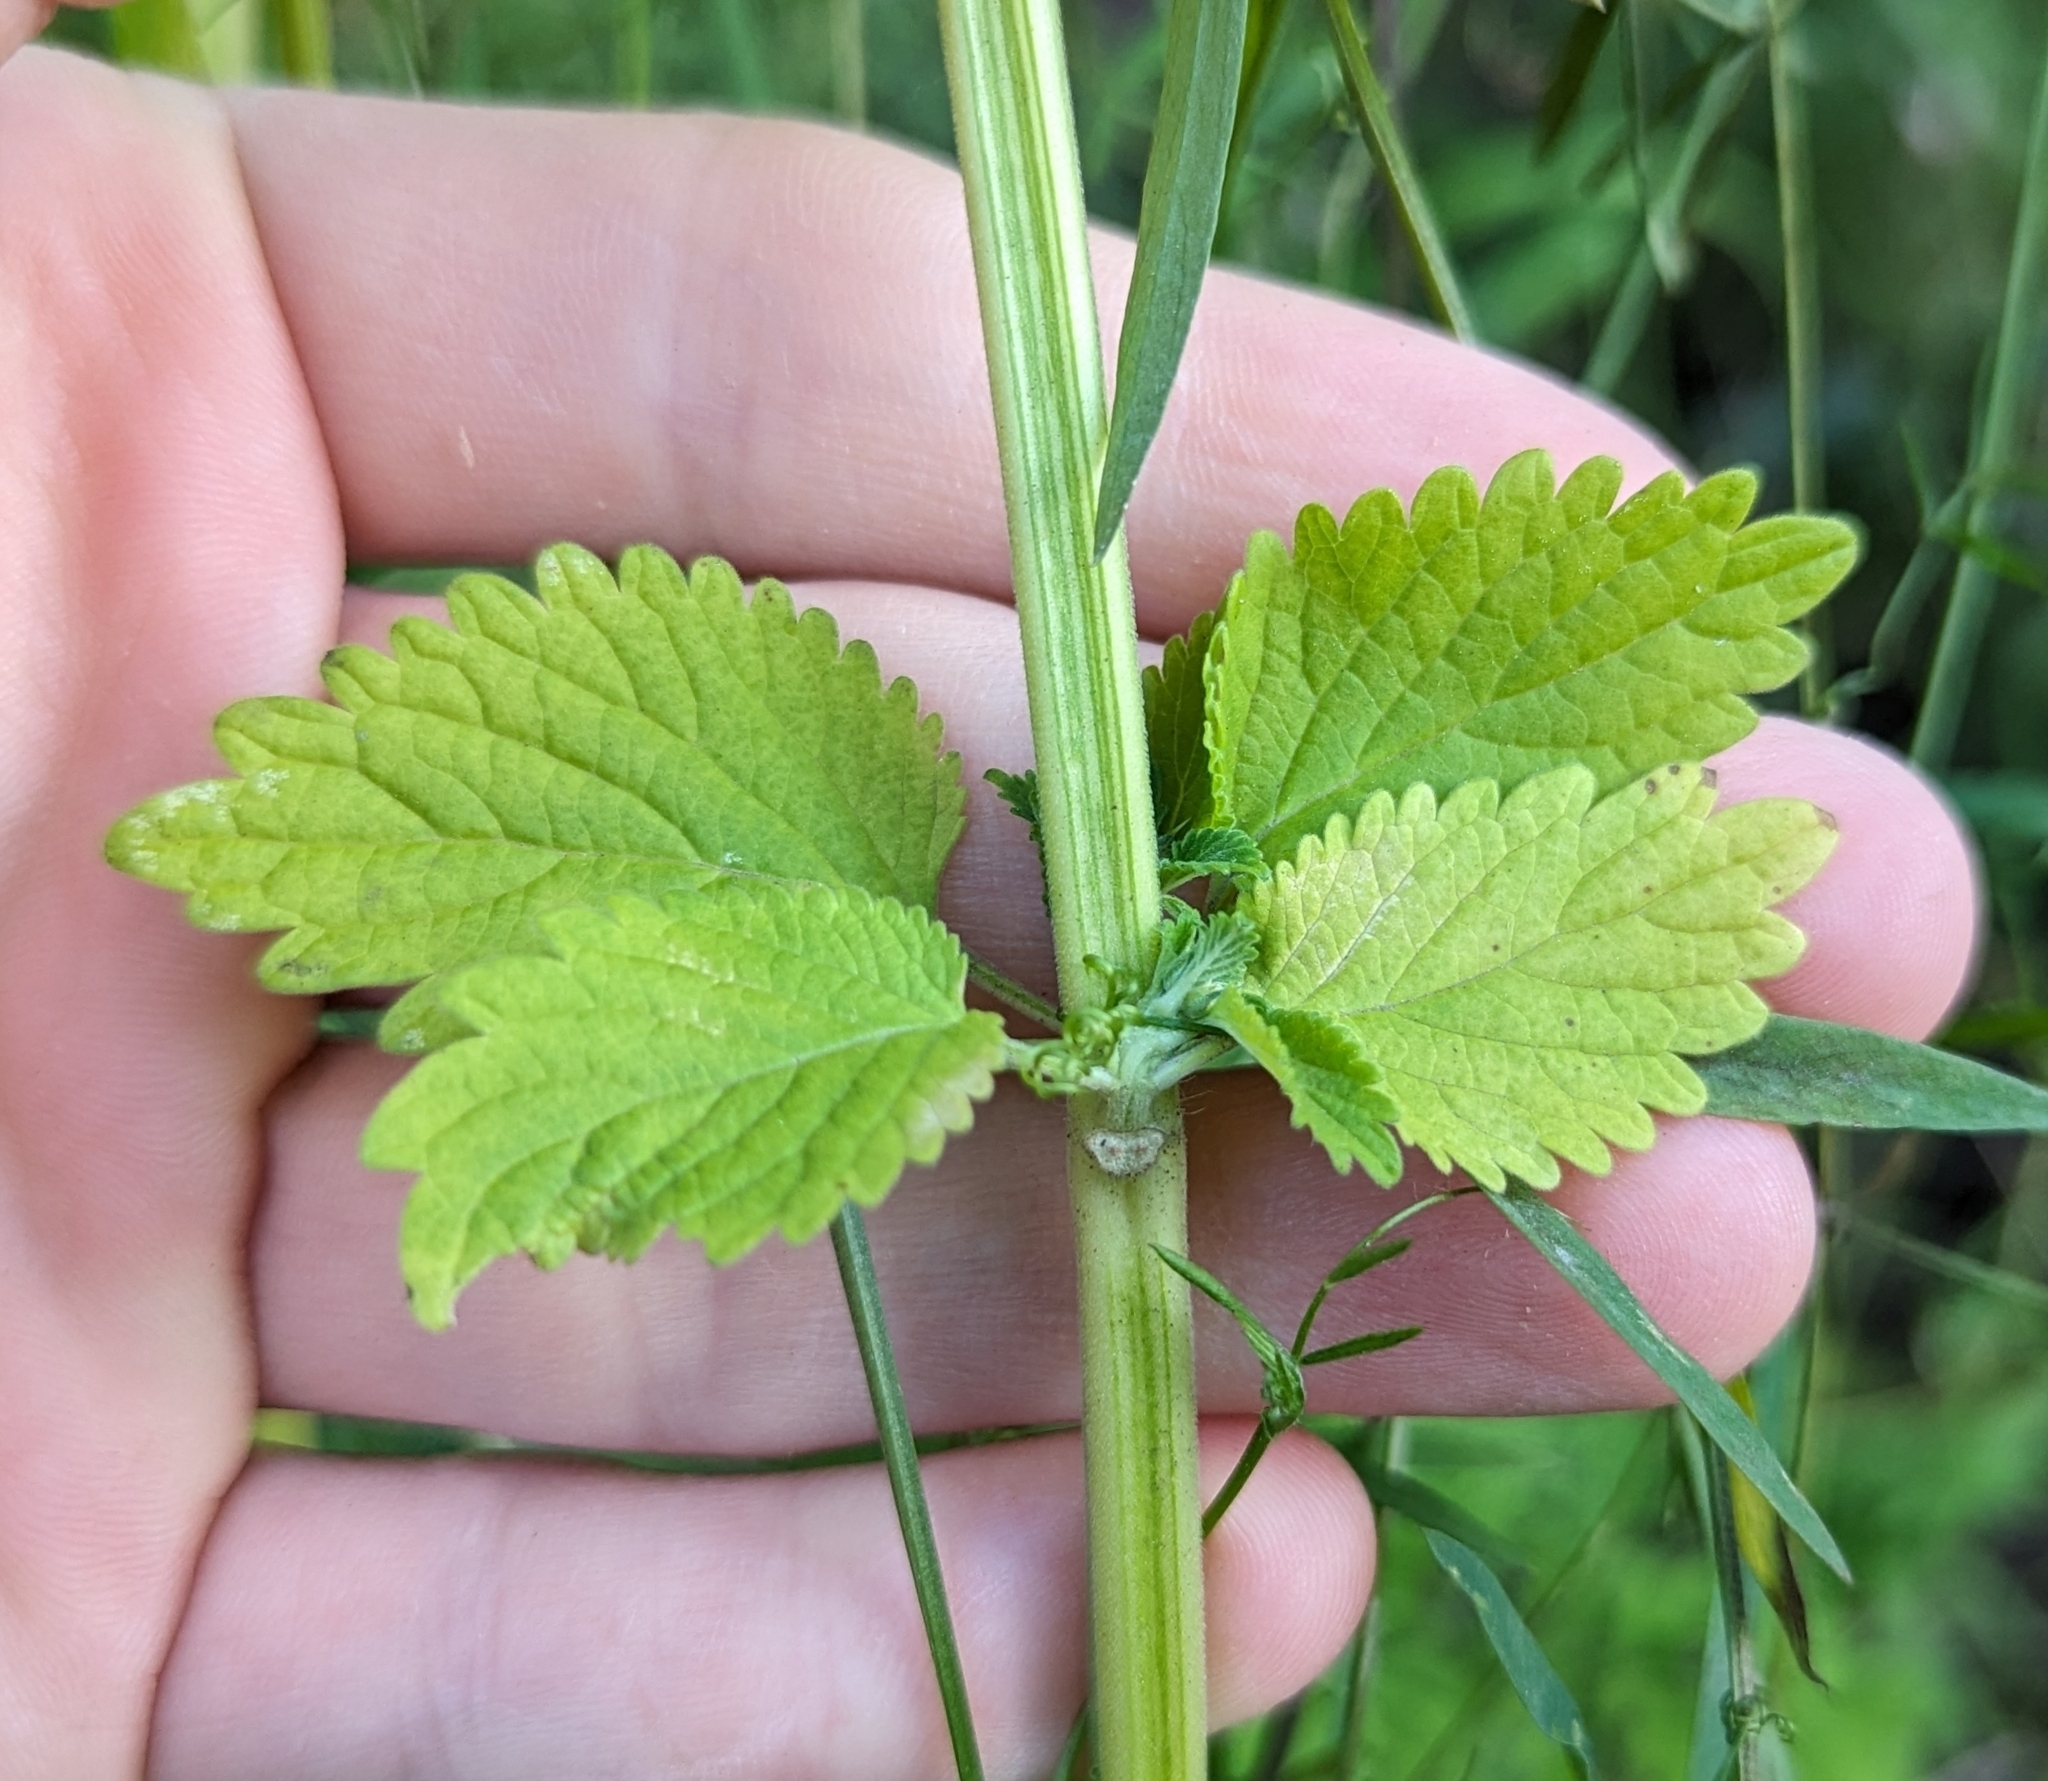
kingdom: Plantae
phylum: Tracheophyta
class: Magnoliopsida
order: Lamiales
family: Lamiaceae
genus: Leonotis
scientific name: Leonotis nepetifolia
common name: Christmas candlestick
